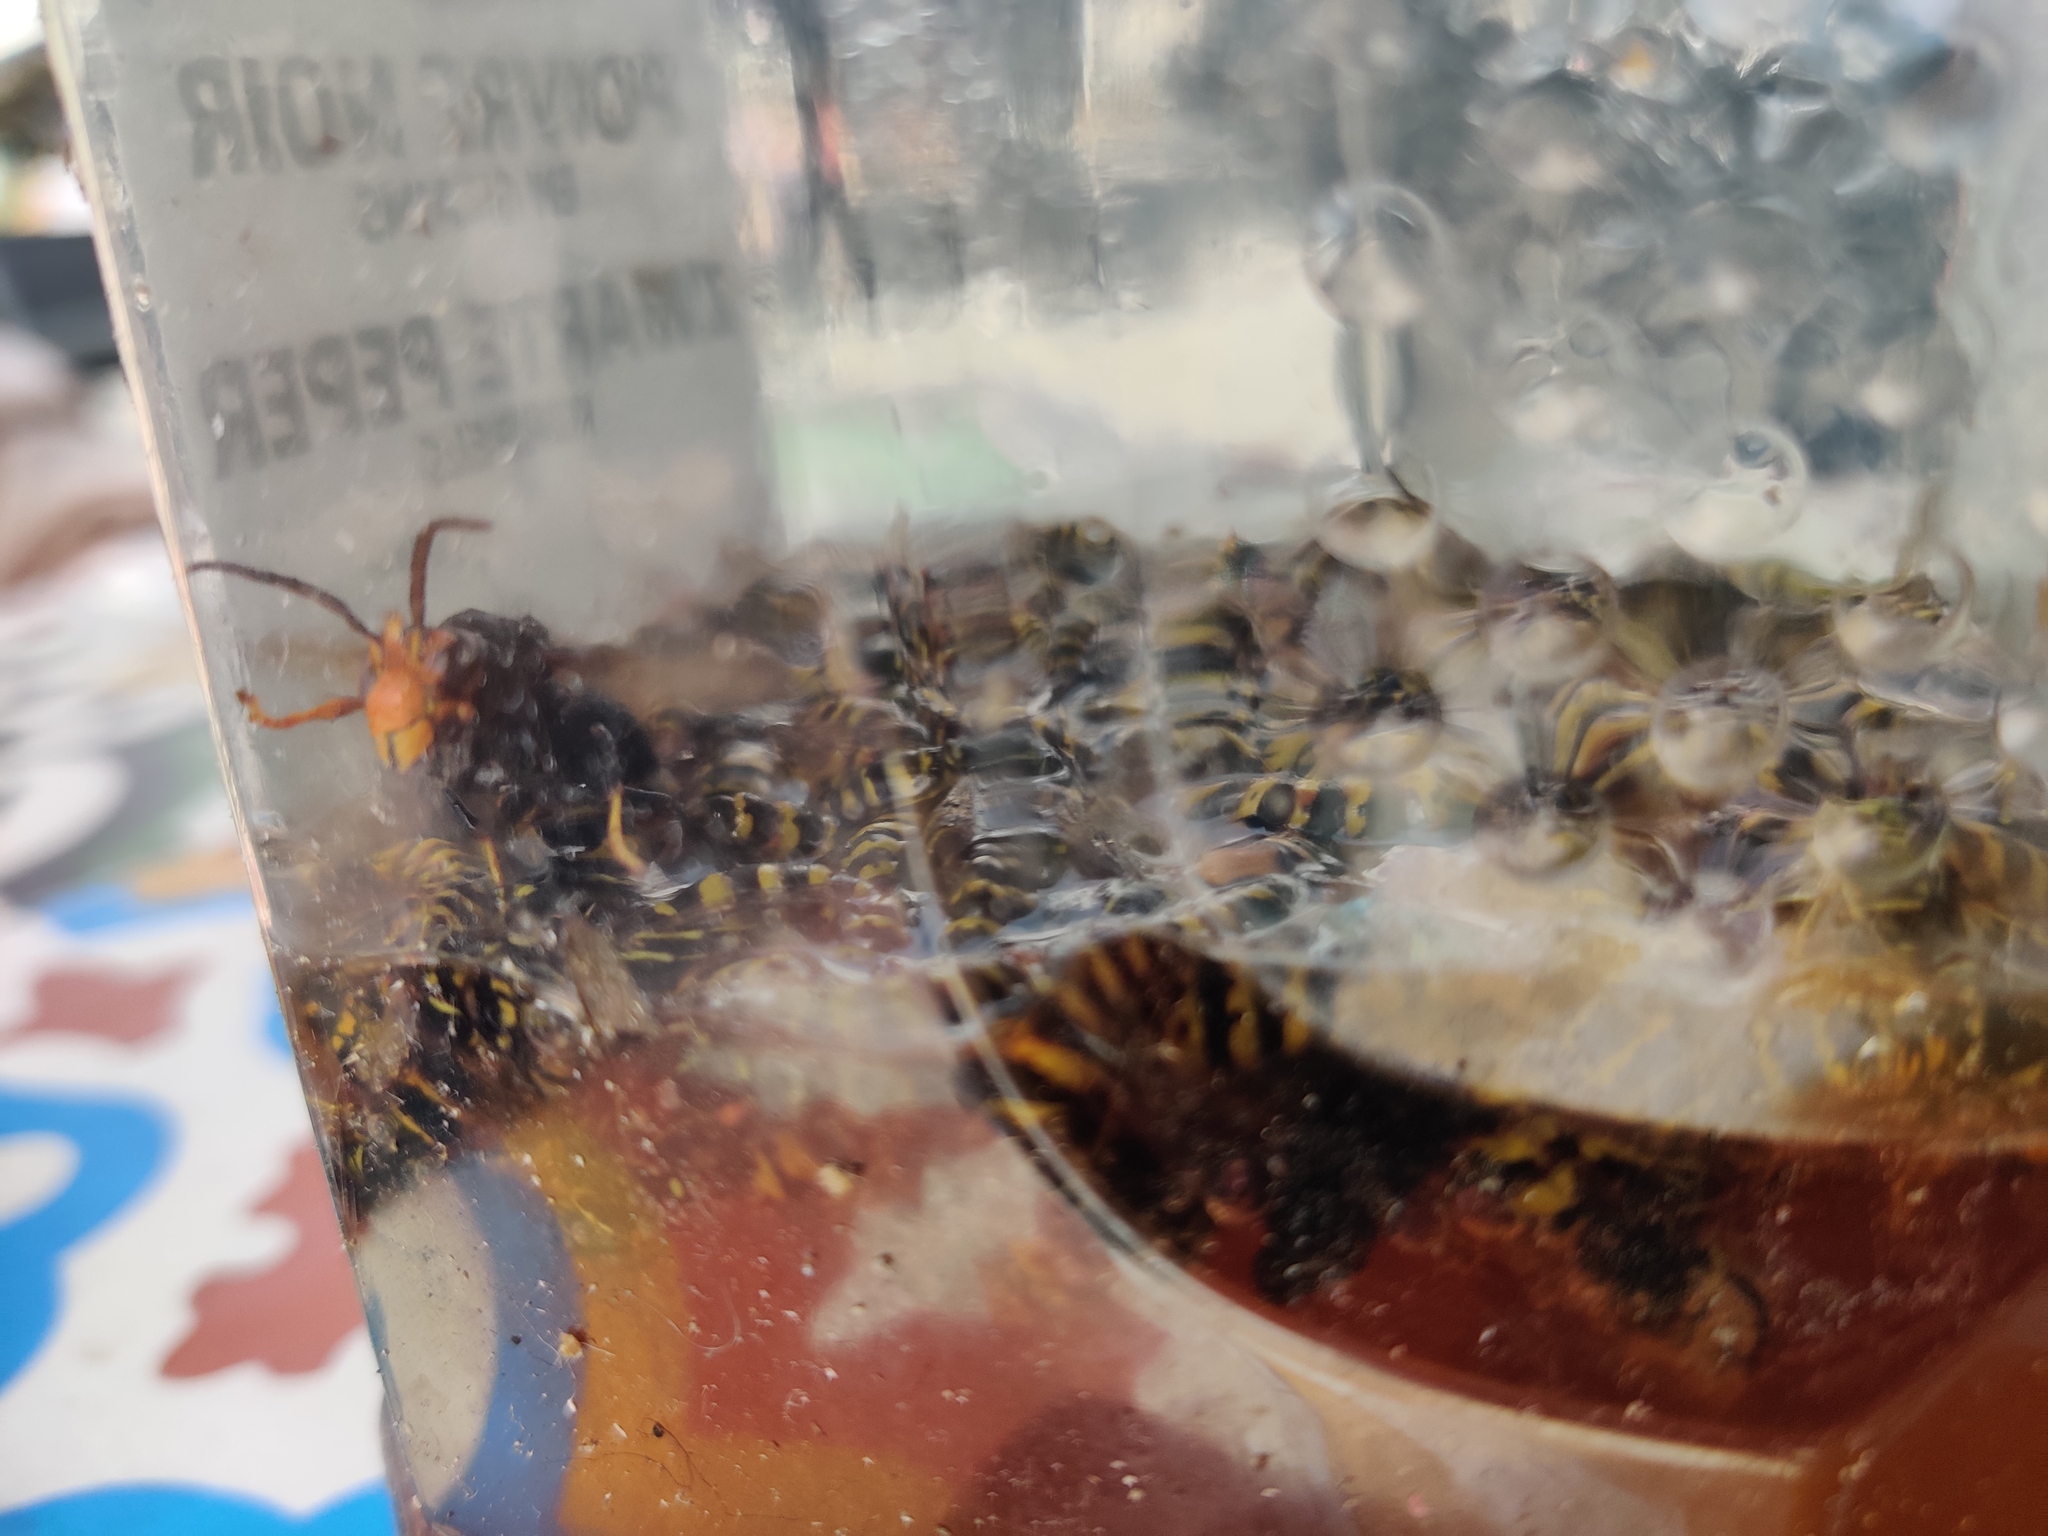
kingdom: Animalia
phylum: Arthropoda
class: Insecta
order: Hymenoptera
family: Vespidae
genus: Vespa
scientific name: Vespa velutina
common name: Asian hornet
